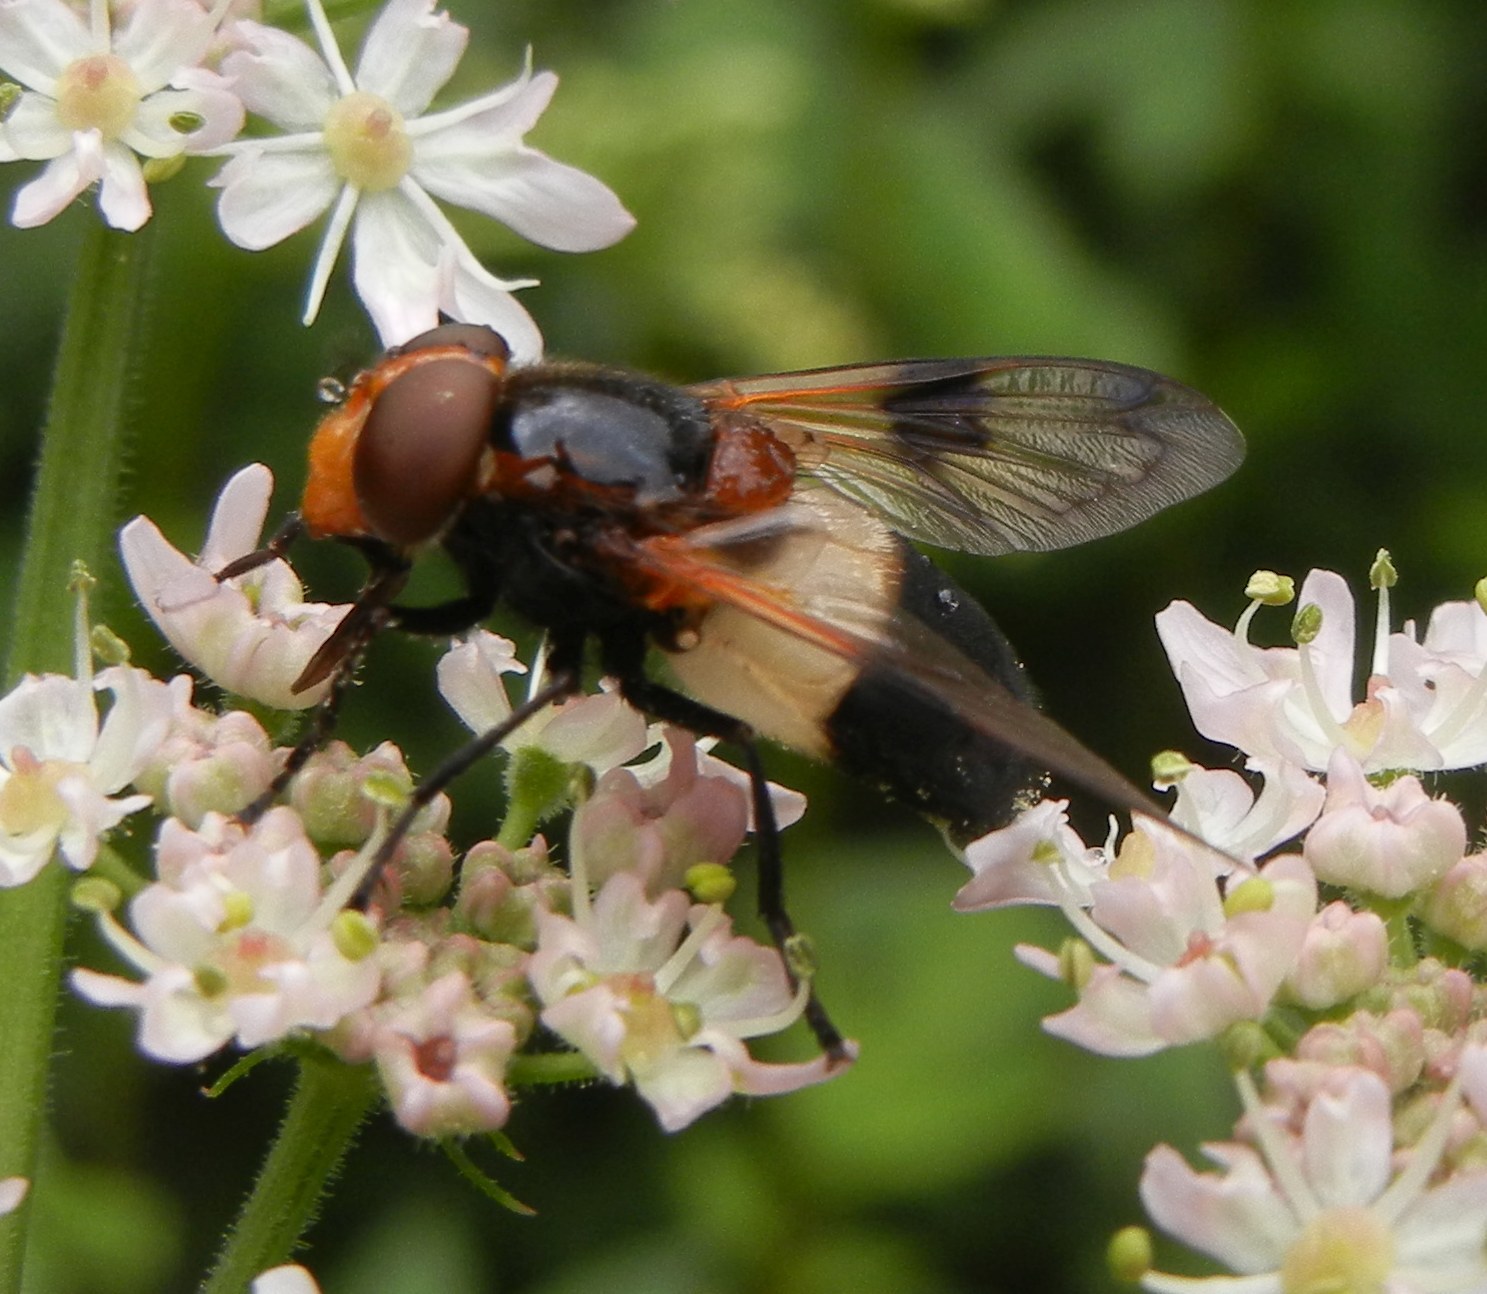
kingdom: Animalia
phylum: Arthropoda
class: Insecta
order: Diptera
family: Syrphidae
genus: Volucella
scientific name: Volucella pellucens
